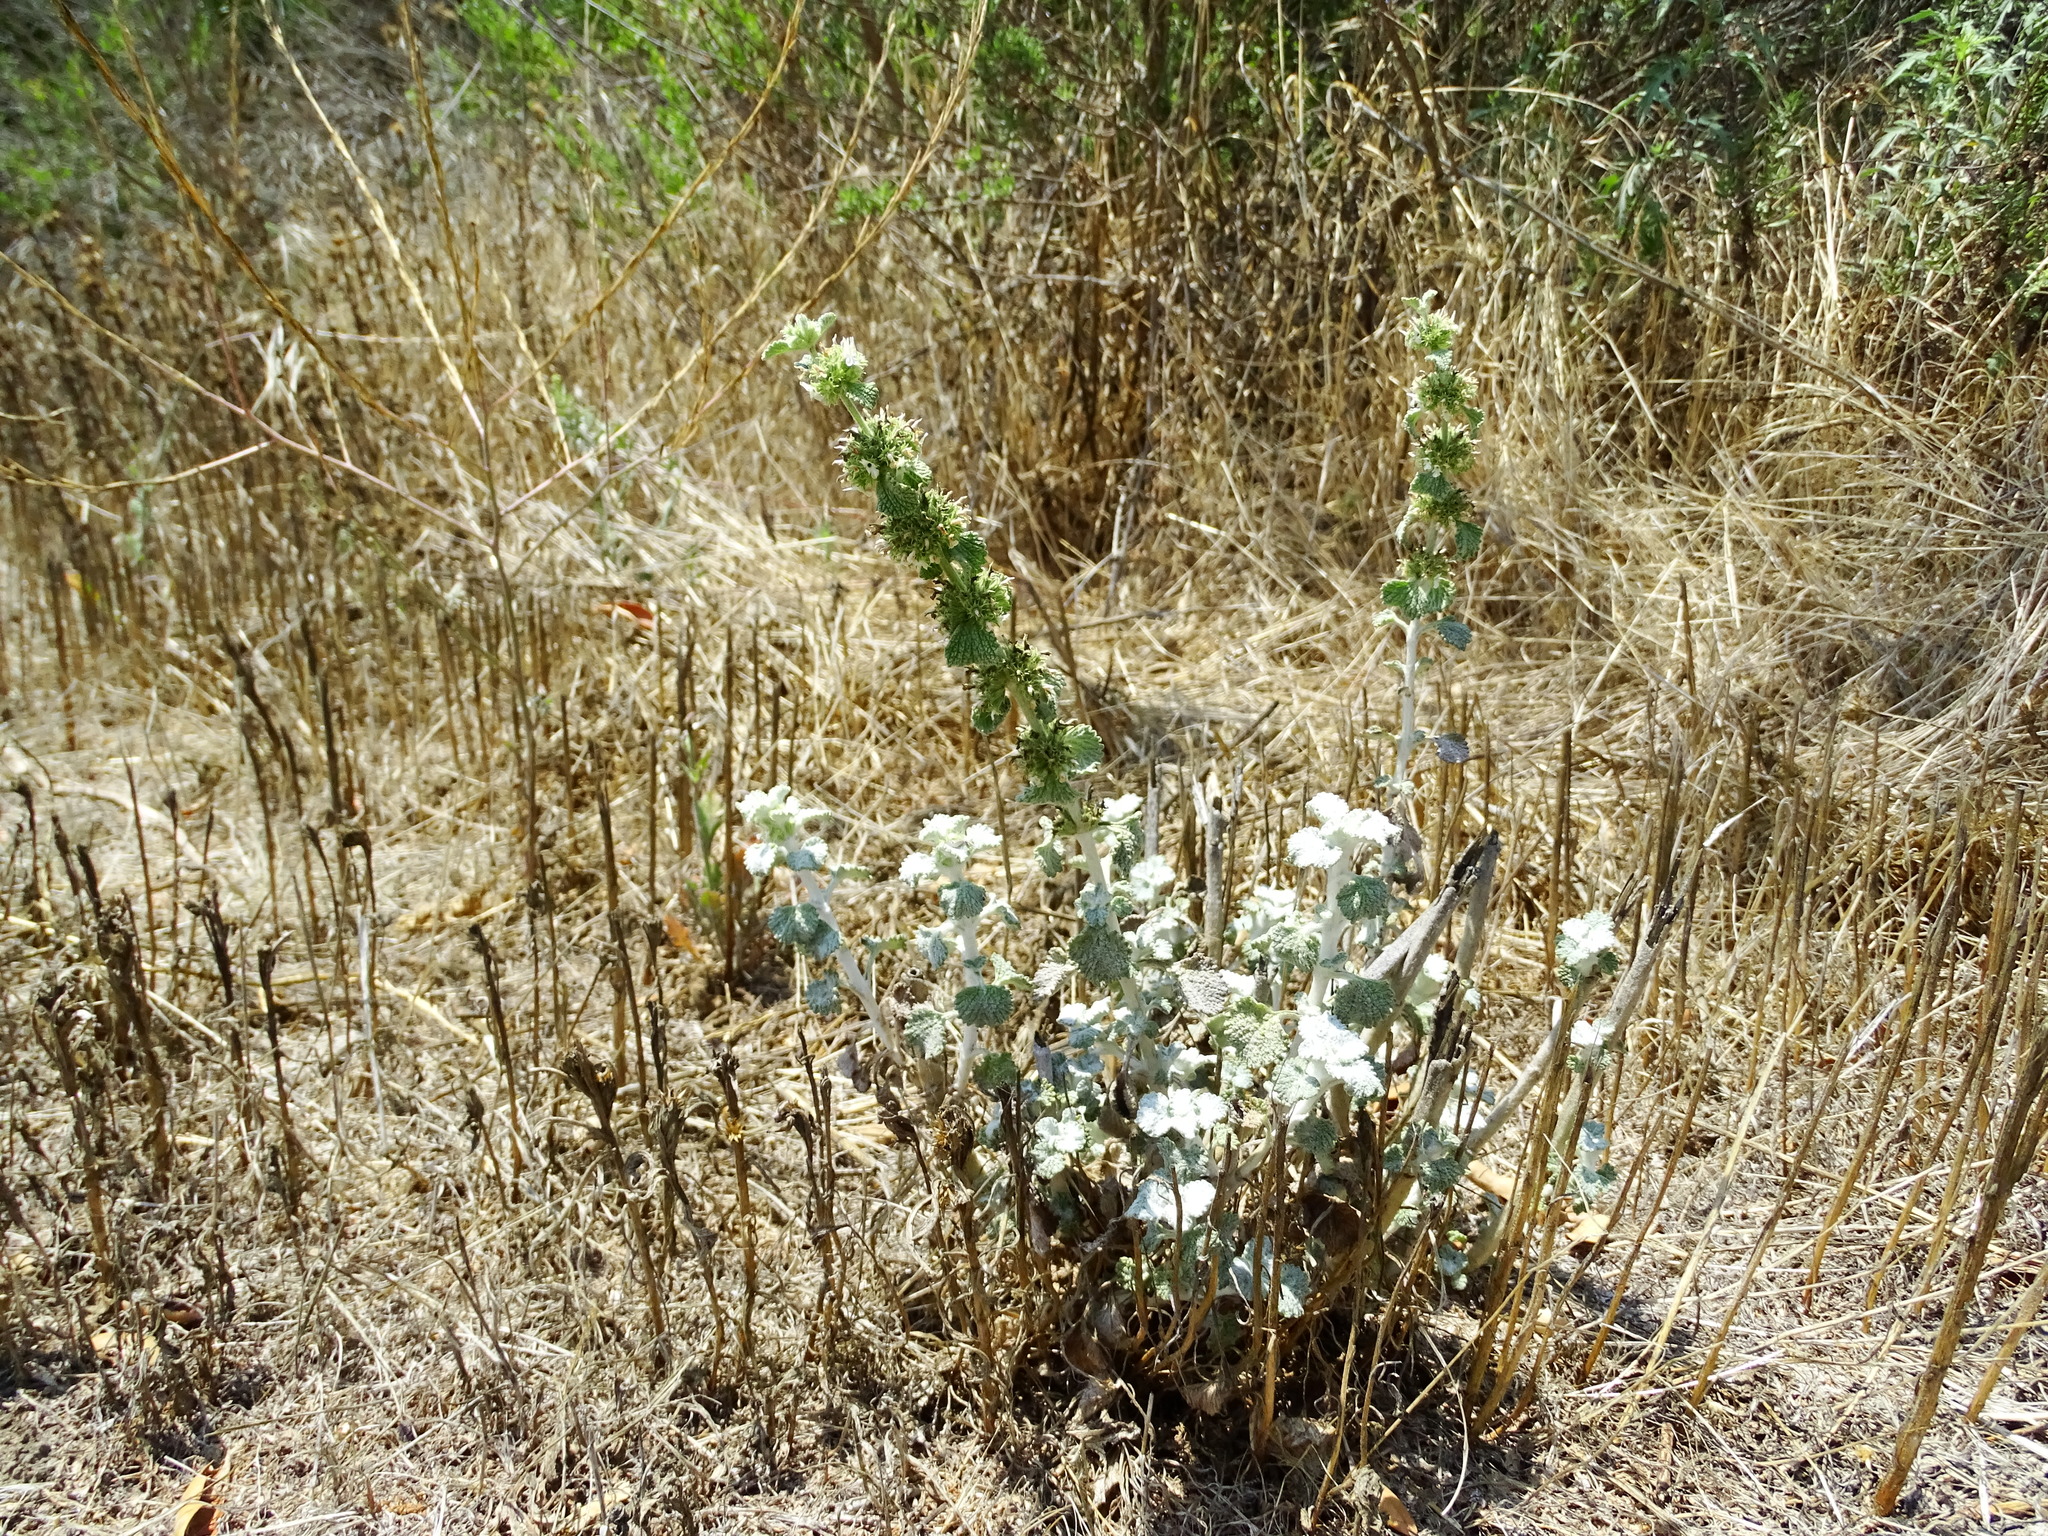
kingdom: Plantae
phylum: Tracheophyta
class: Magnoliopsida
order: Lamiales
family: Lamiaceae
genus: Marrubium
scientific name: Marrubium vulgare
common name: Horehound
